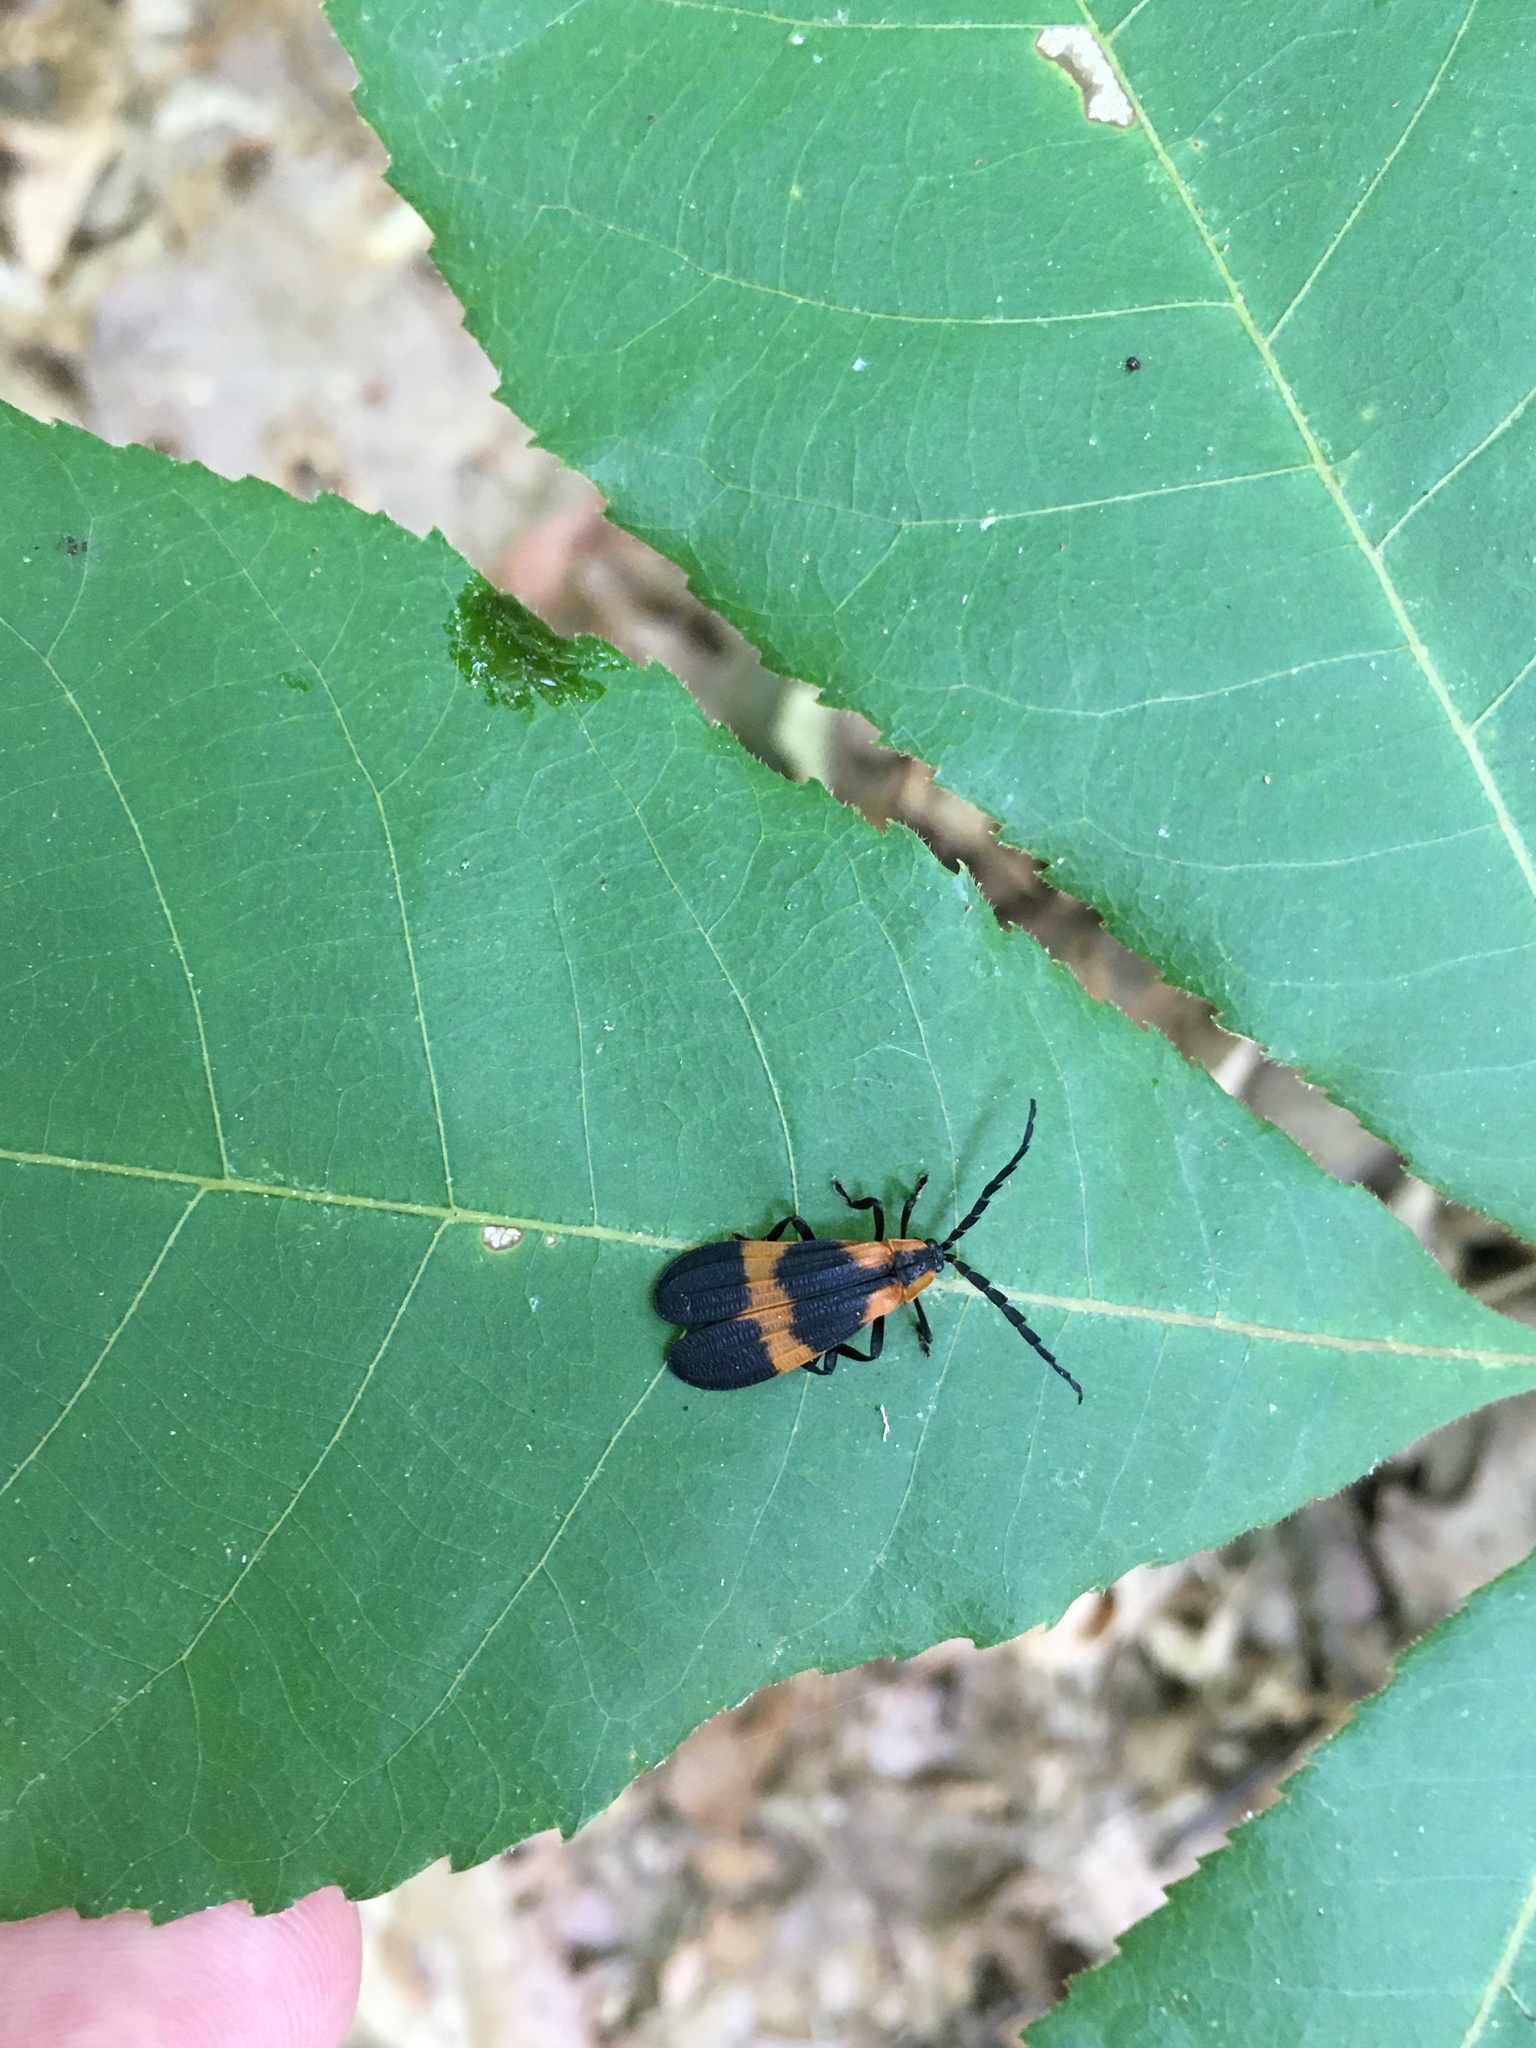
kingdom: Animalia
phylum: Arthropoda
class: Insecta
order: Coleoptera
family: Lycidae
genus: Calopteron
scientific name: Calopteron reticulatum
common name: Banded net-winged beetle
